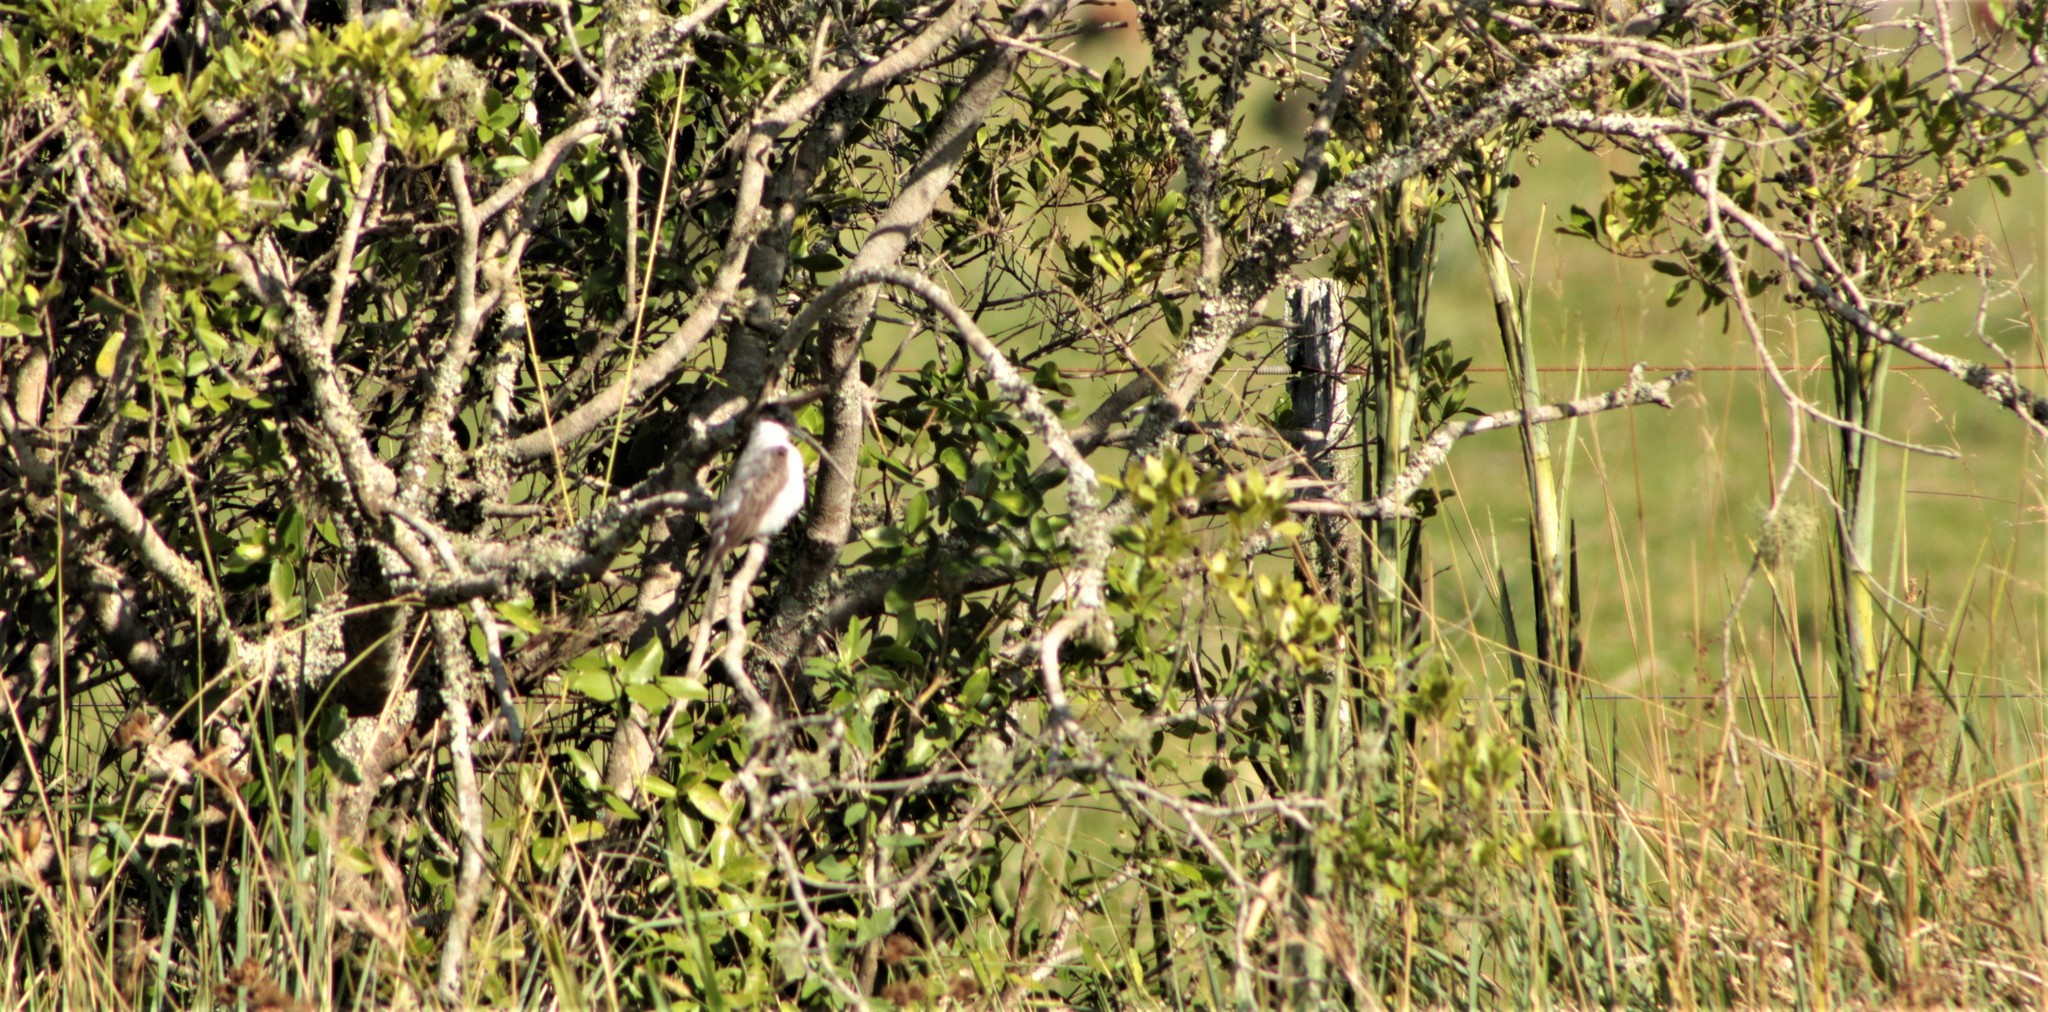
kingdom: Animalia
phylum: Chordata
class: Aves
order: Passeriformes
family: Tyrannidae
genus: Tyrannus
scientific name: Tyrannus savana
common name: Fork-tailed flycatcher
